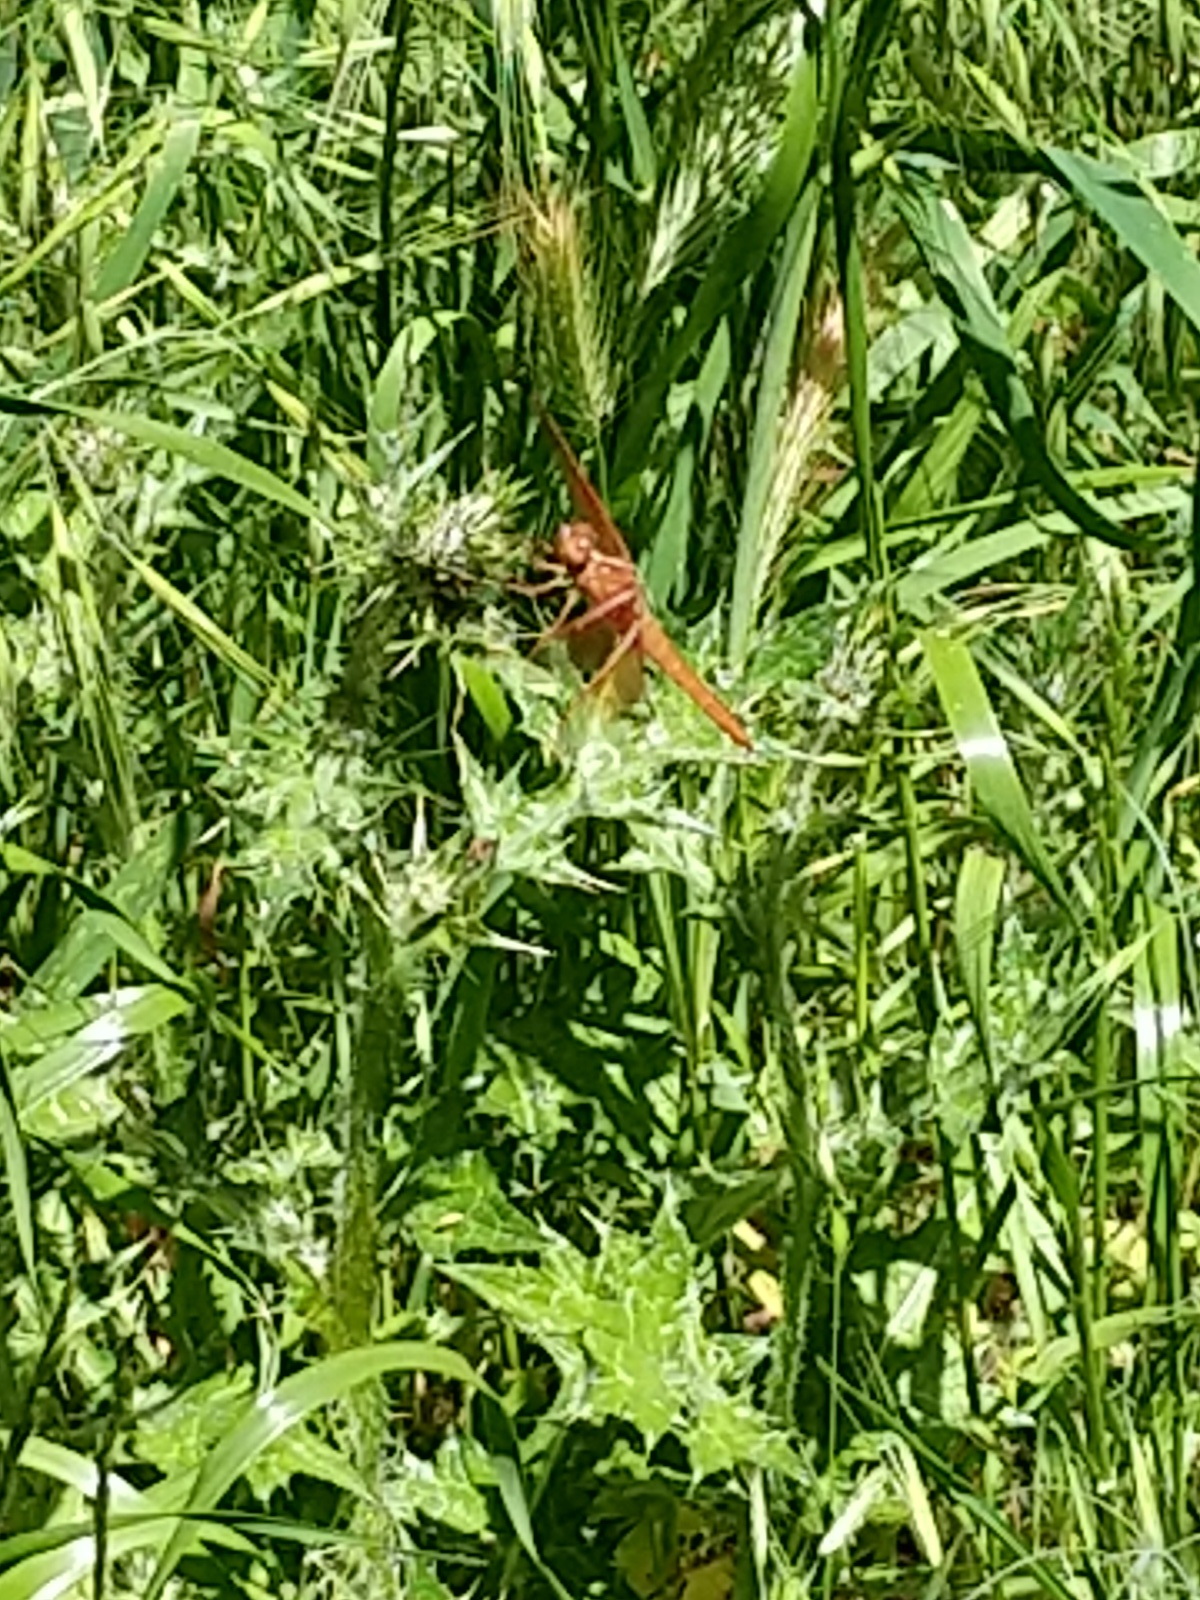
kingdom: Animalia
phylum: Arthropoda
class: Insecta
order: Odonata
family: Libellulidae
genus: Libellula
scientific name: Libellula saturata
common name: Flame skimmer
